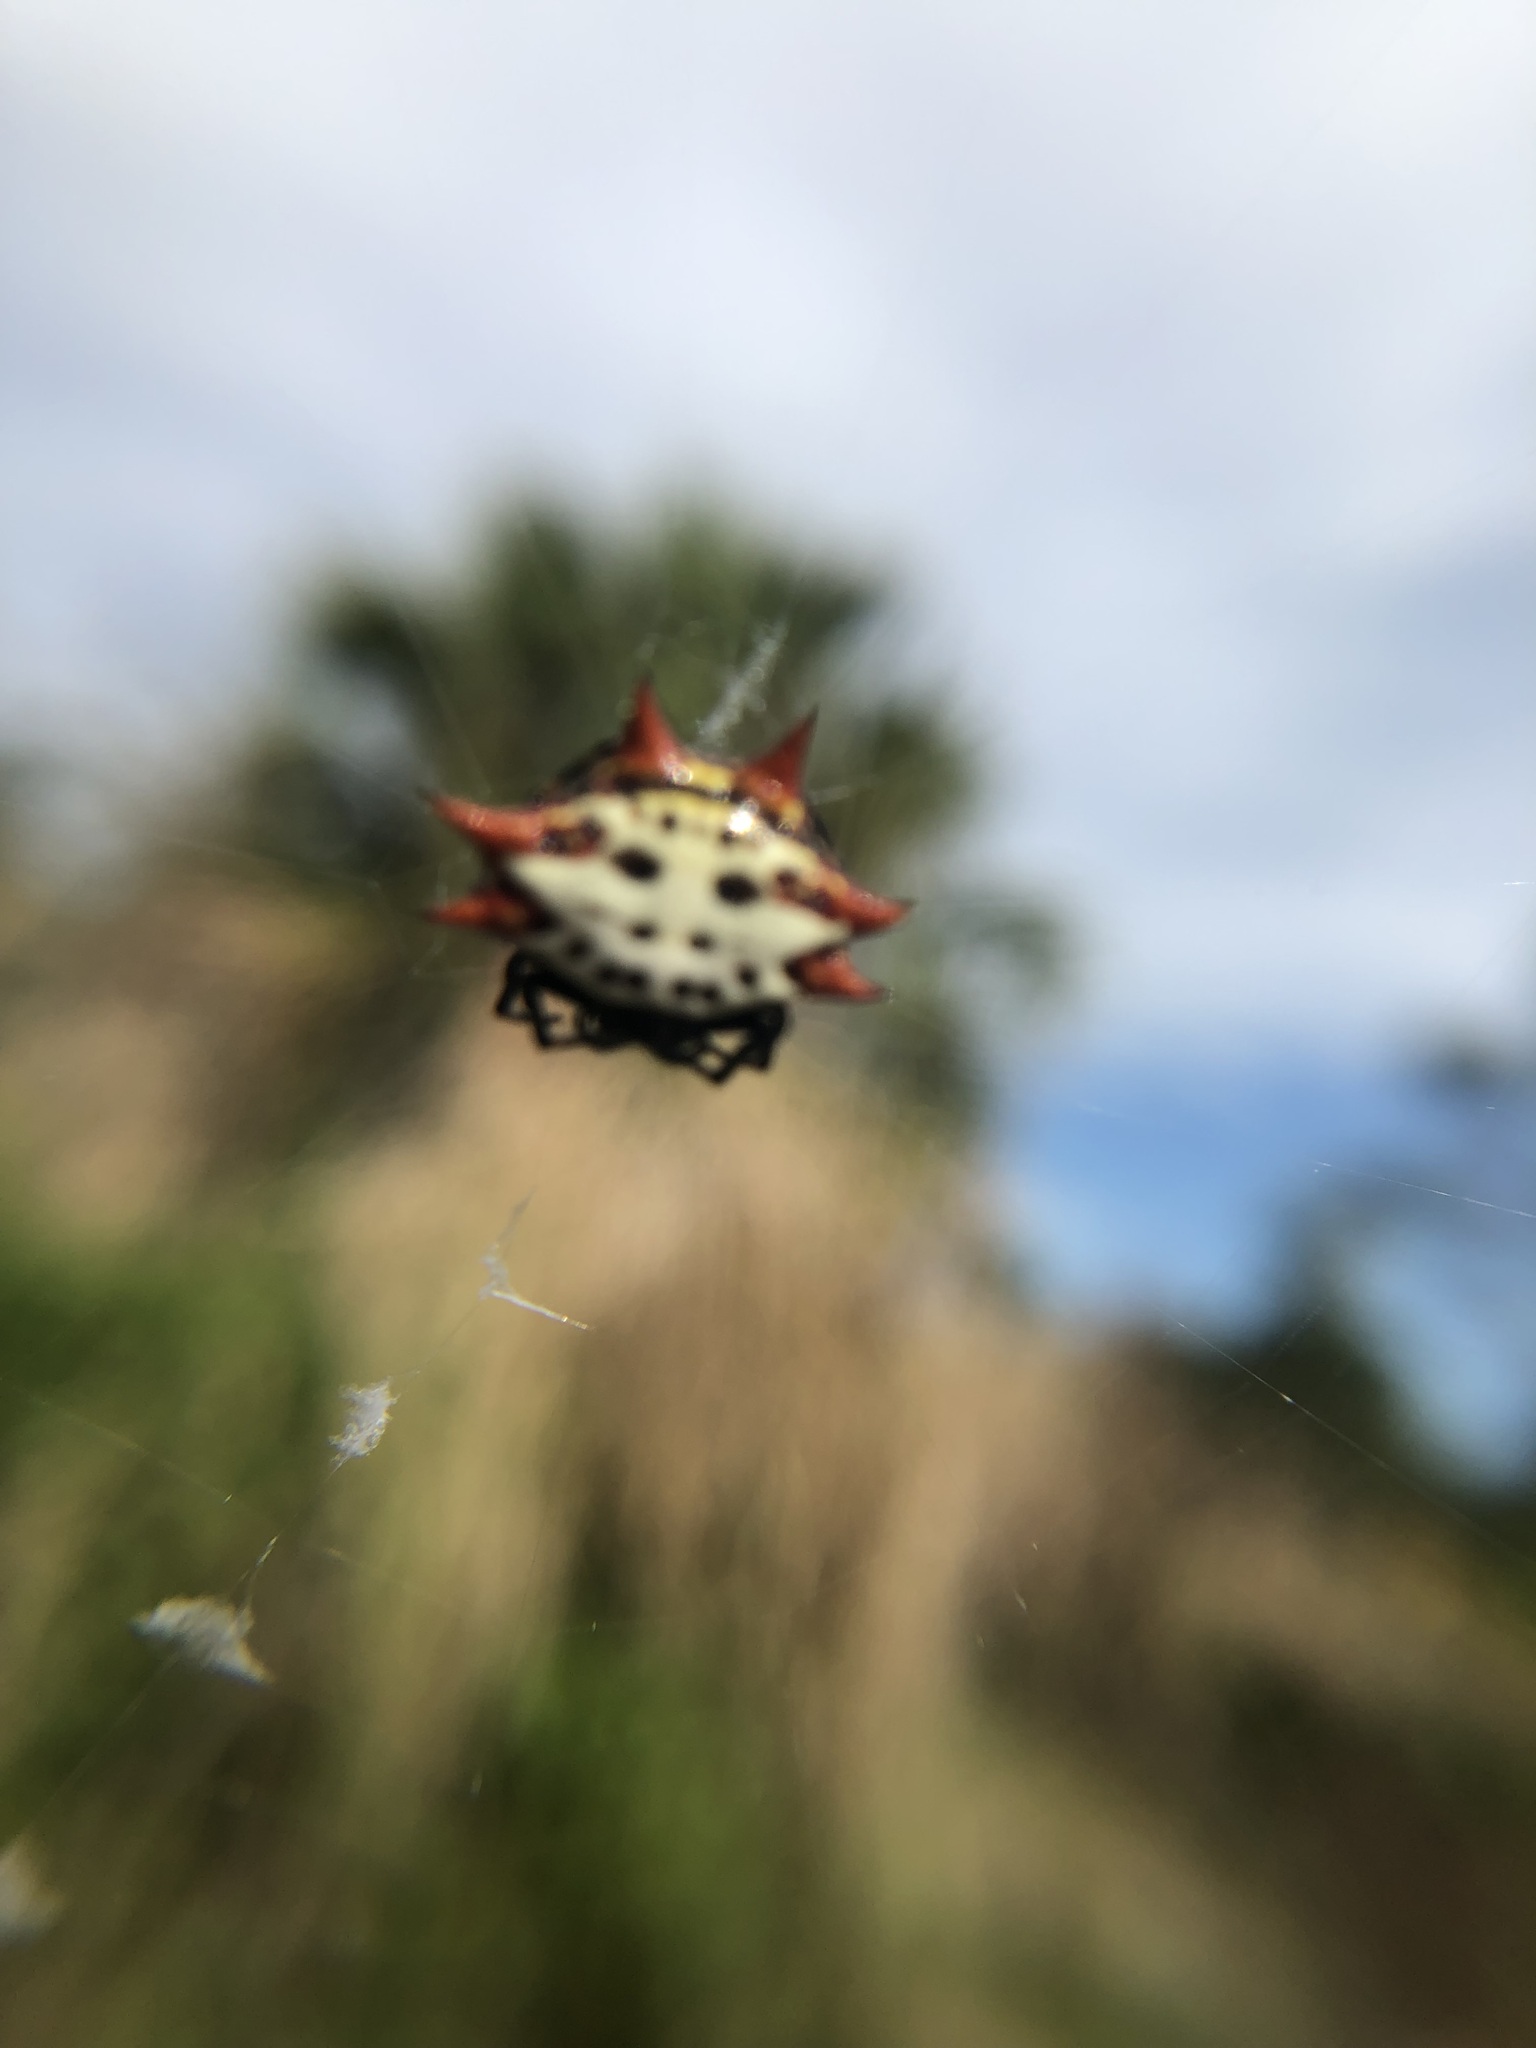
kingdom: Animalia
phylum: Arthropoda
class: Arachnida
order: Araneae
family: Araneidae
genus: Gasteracantha
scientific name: Gasteracantha cancriformis
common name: Orb weavers
